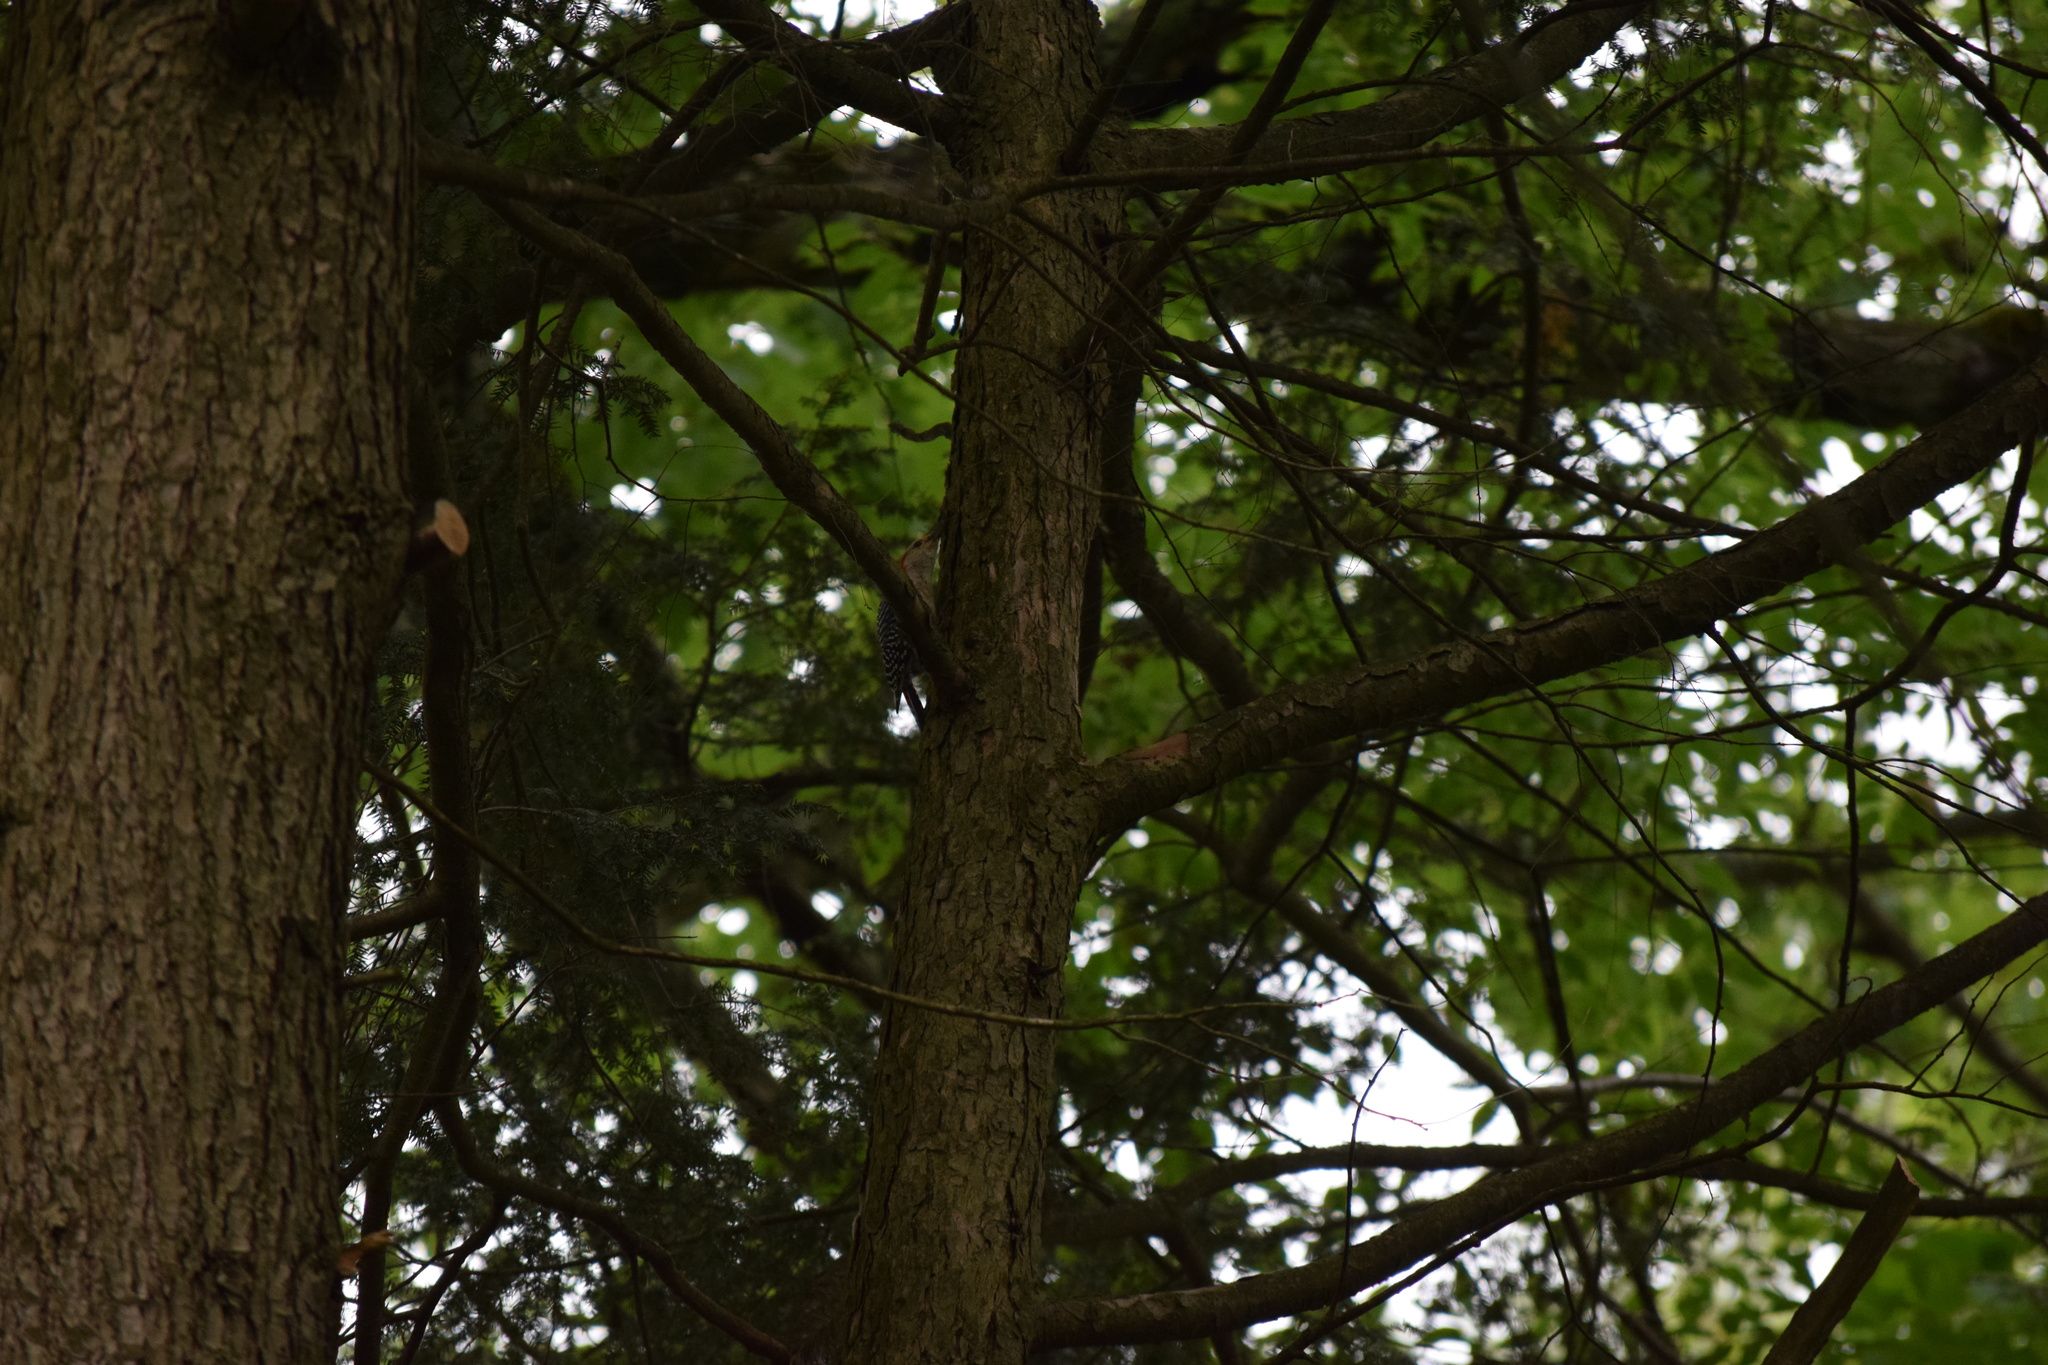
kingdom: Animalia
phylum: Chordata
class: Aves
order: Piciformes
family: Picidae
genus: Melanerpes
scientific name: Melanerpes carolinus
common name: Red-bellied woodpecker
